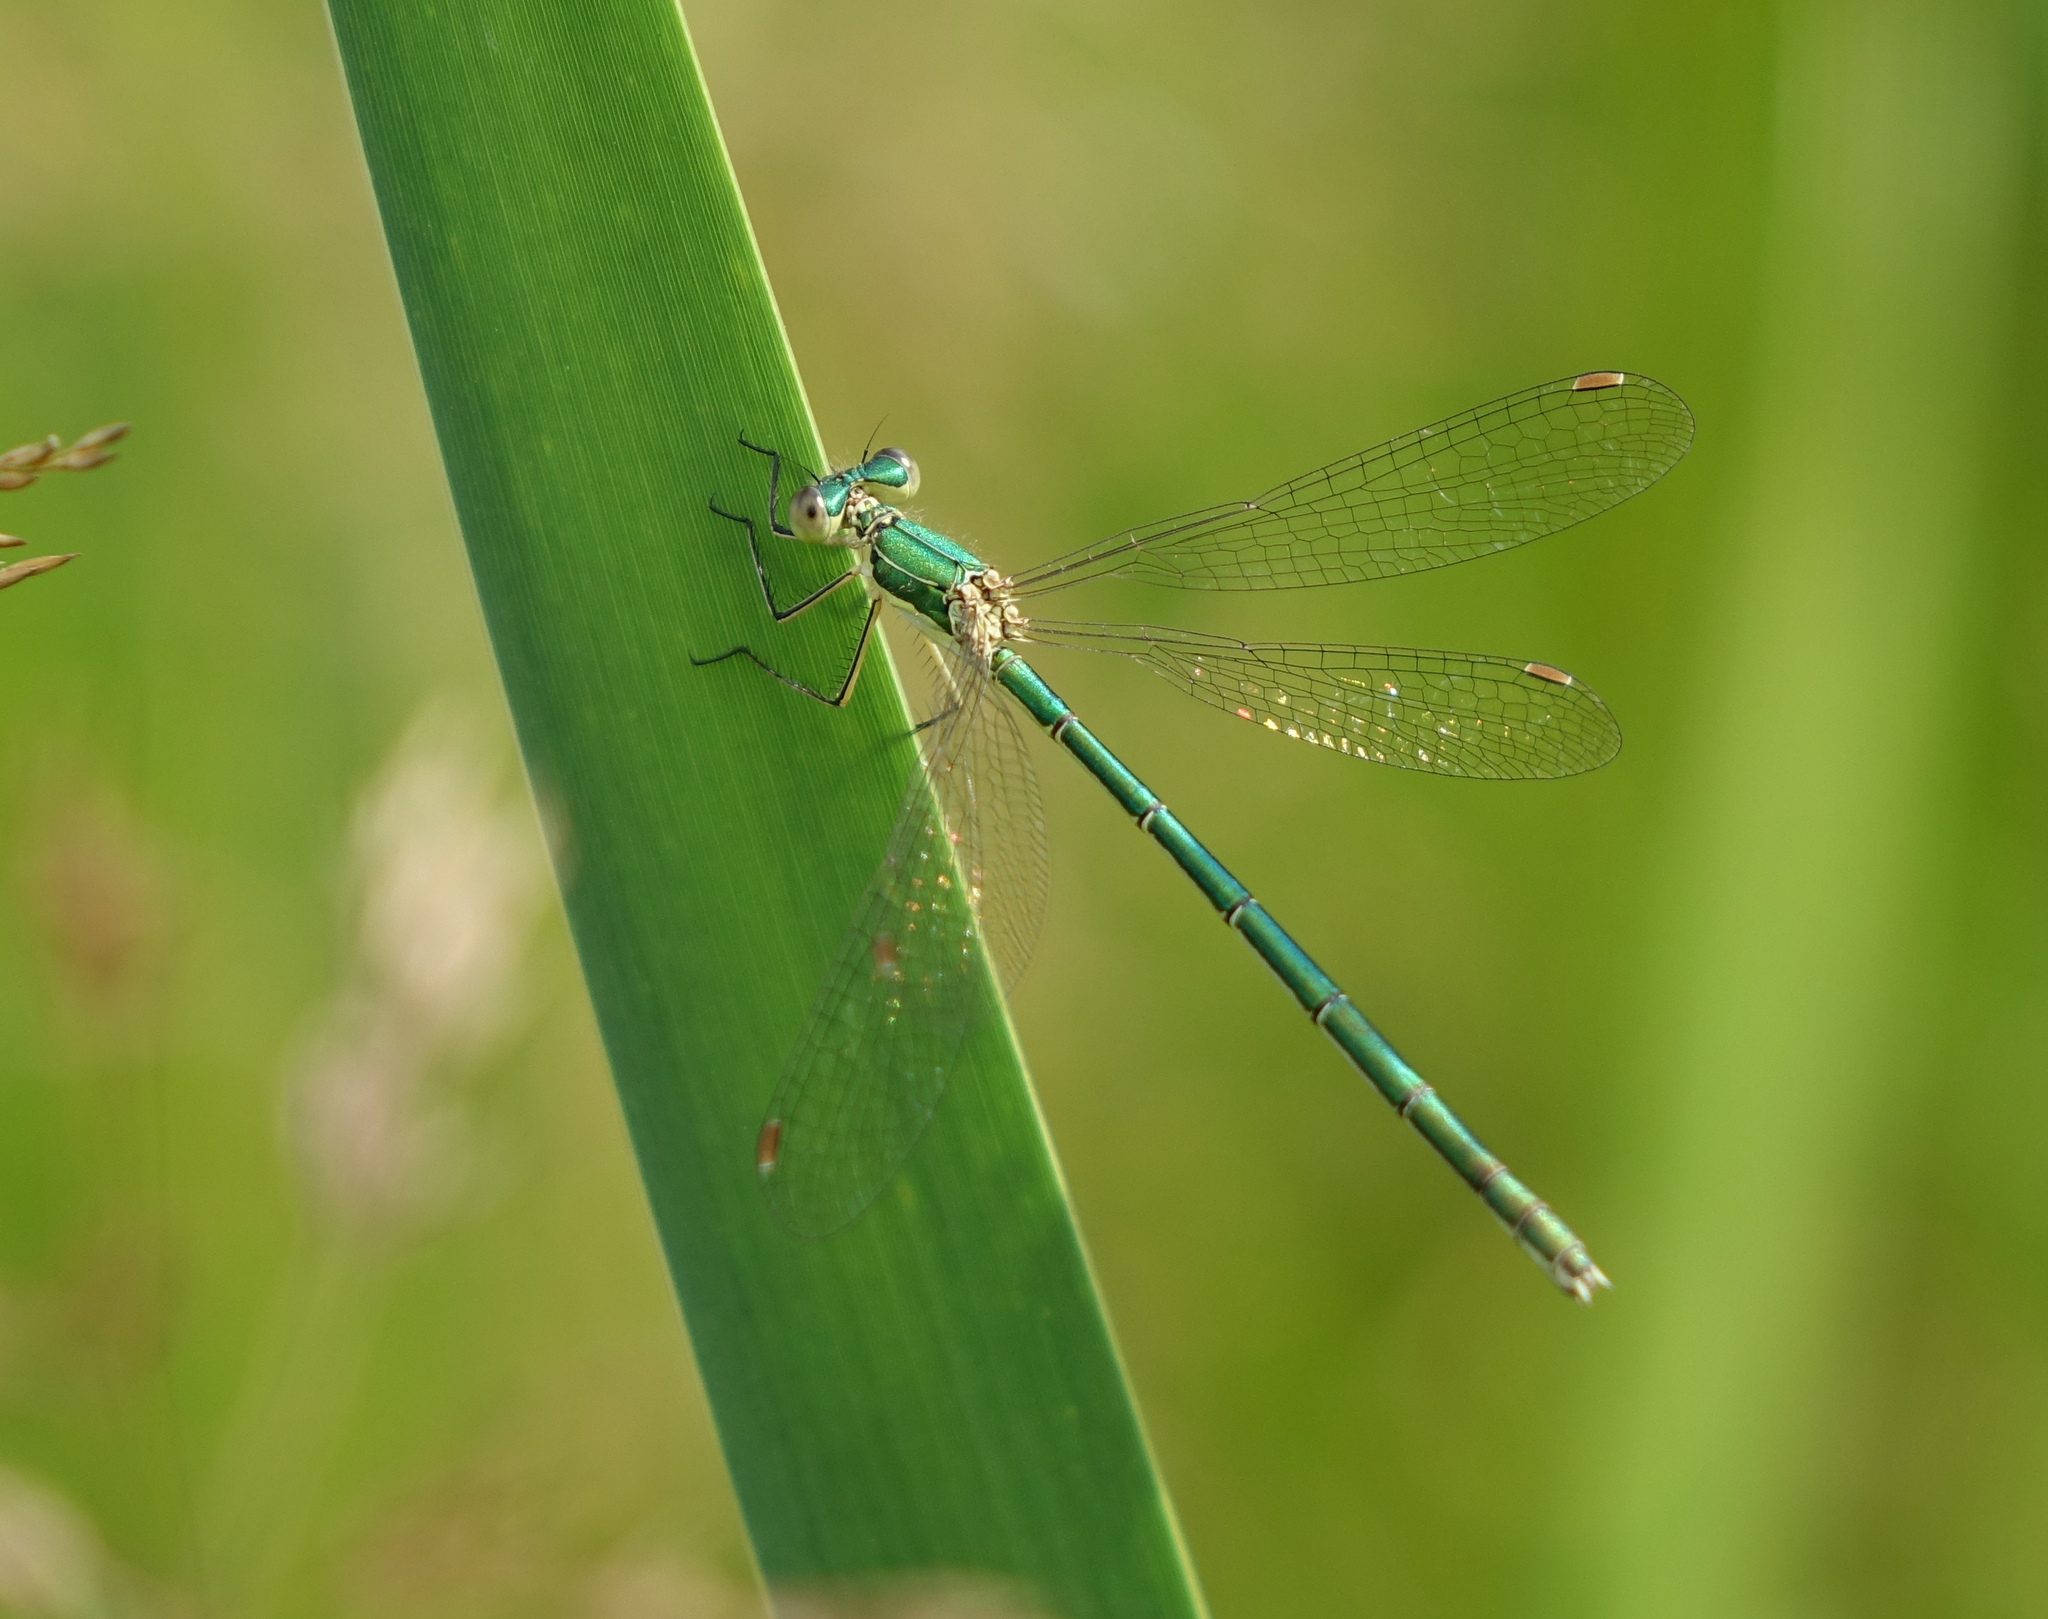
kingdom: Animalia
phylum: Arthropoda
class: Insecta
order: Odonata
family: Lestidae
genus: Lestes
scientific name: Lestes virens
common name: Small emerald spreadwing
